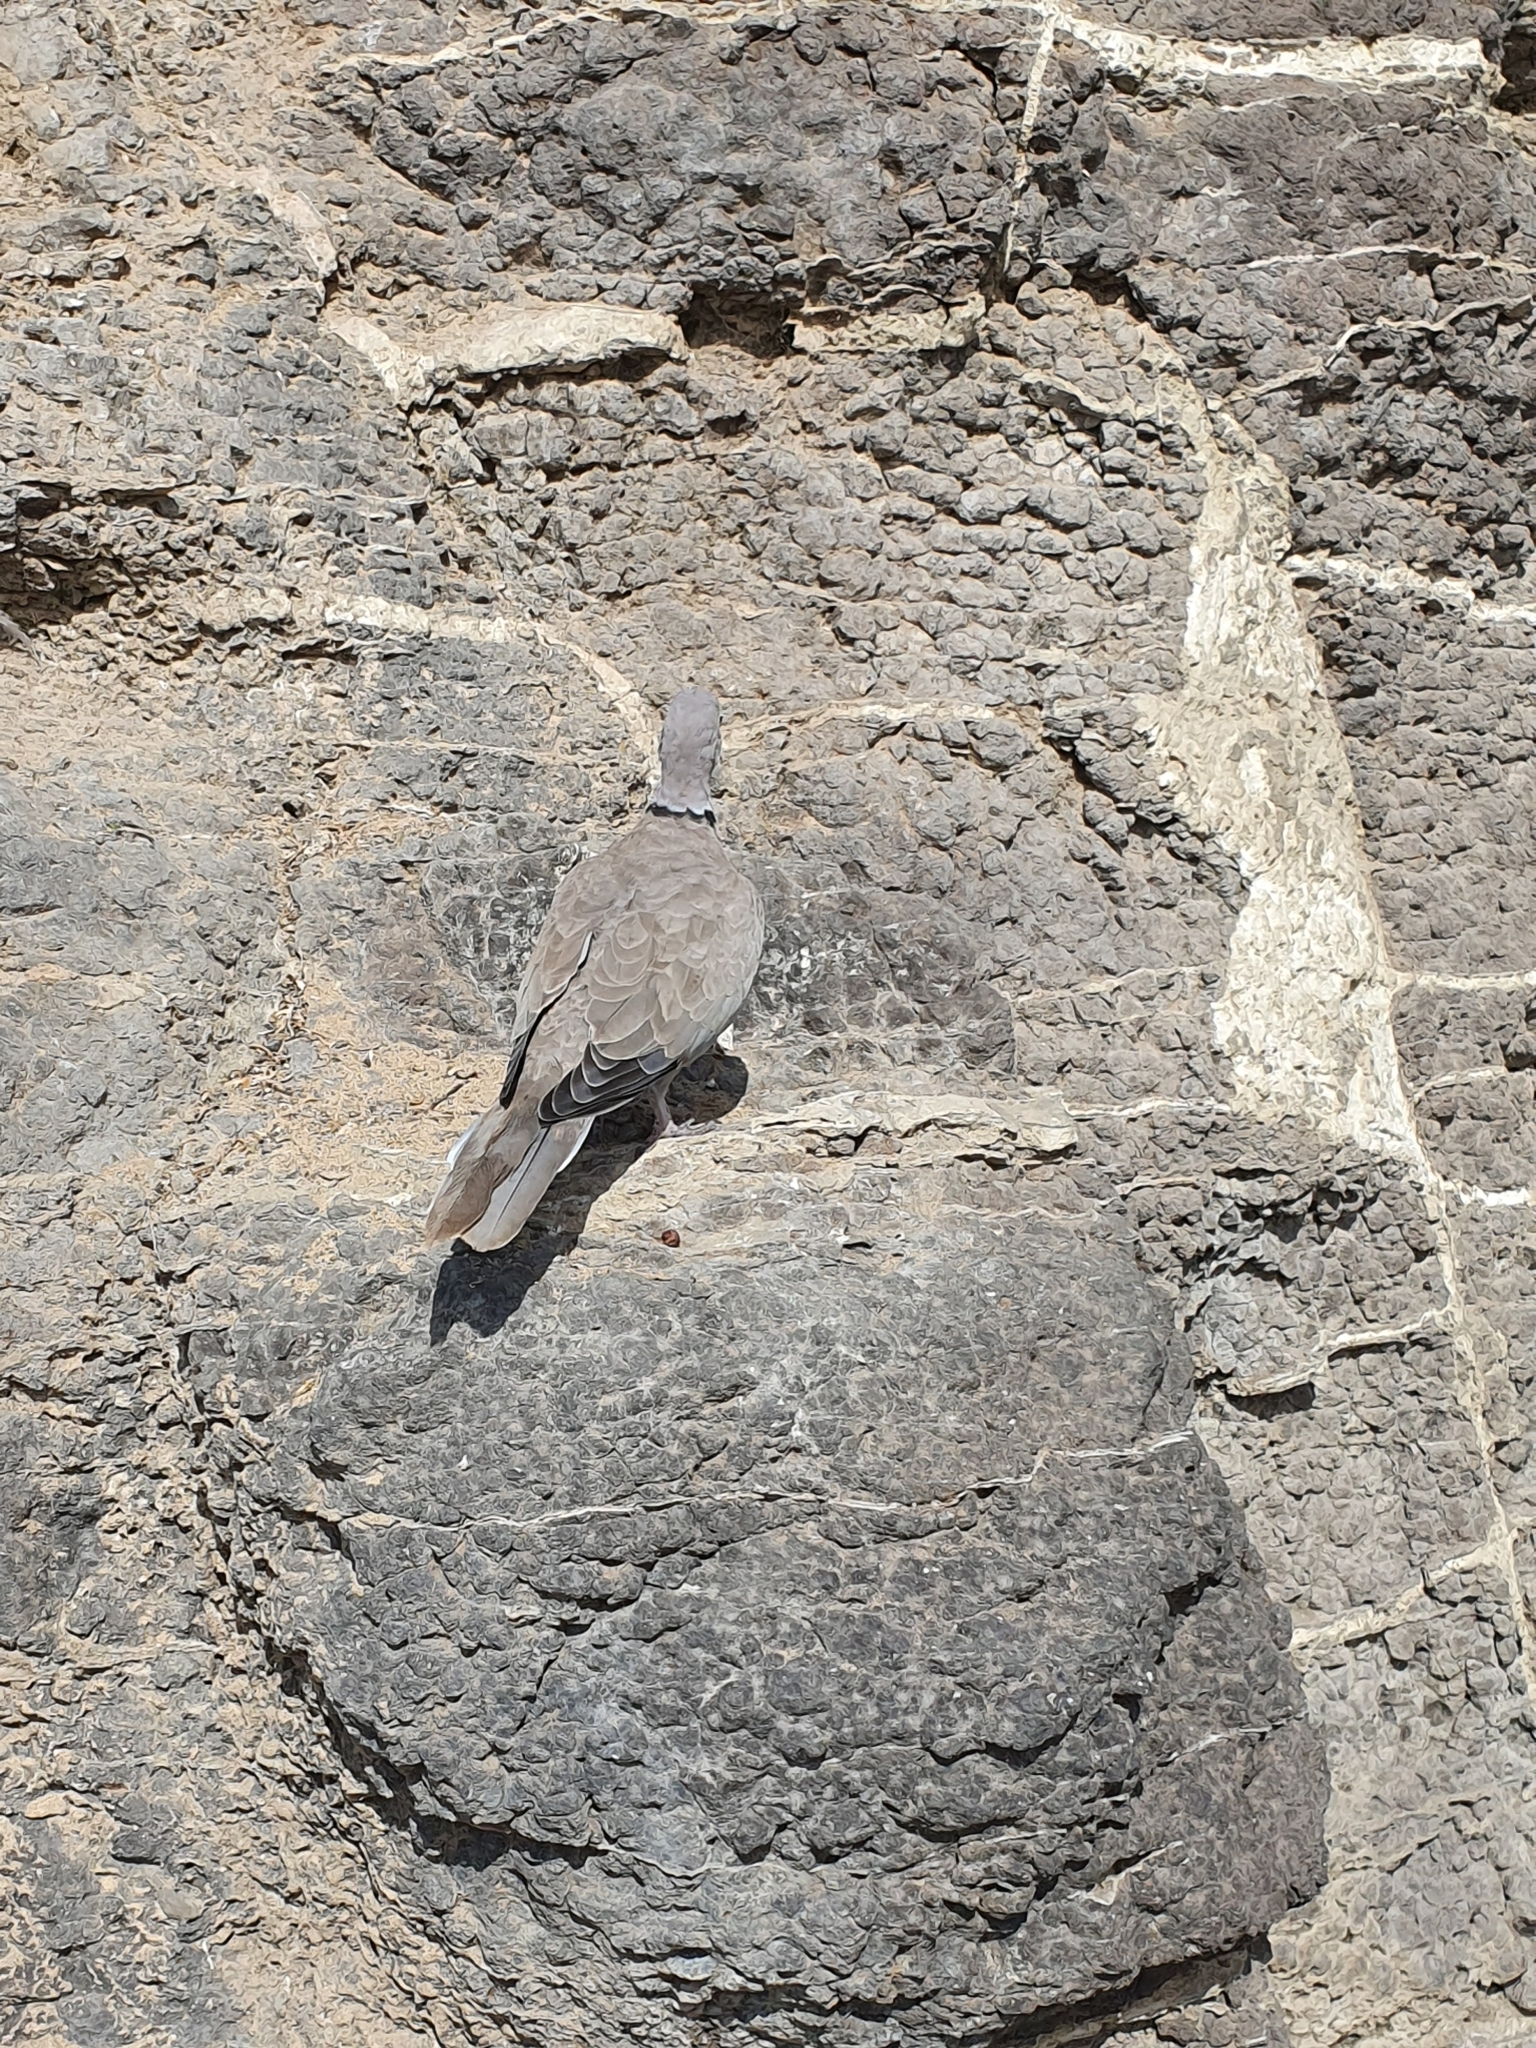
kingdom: Animalia
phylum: Chordata
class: Aves
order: Columbiformes
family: Columbidae
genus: Streptopelia
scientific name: Streptopelia decaocto
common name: Eurasian collared dove
